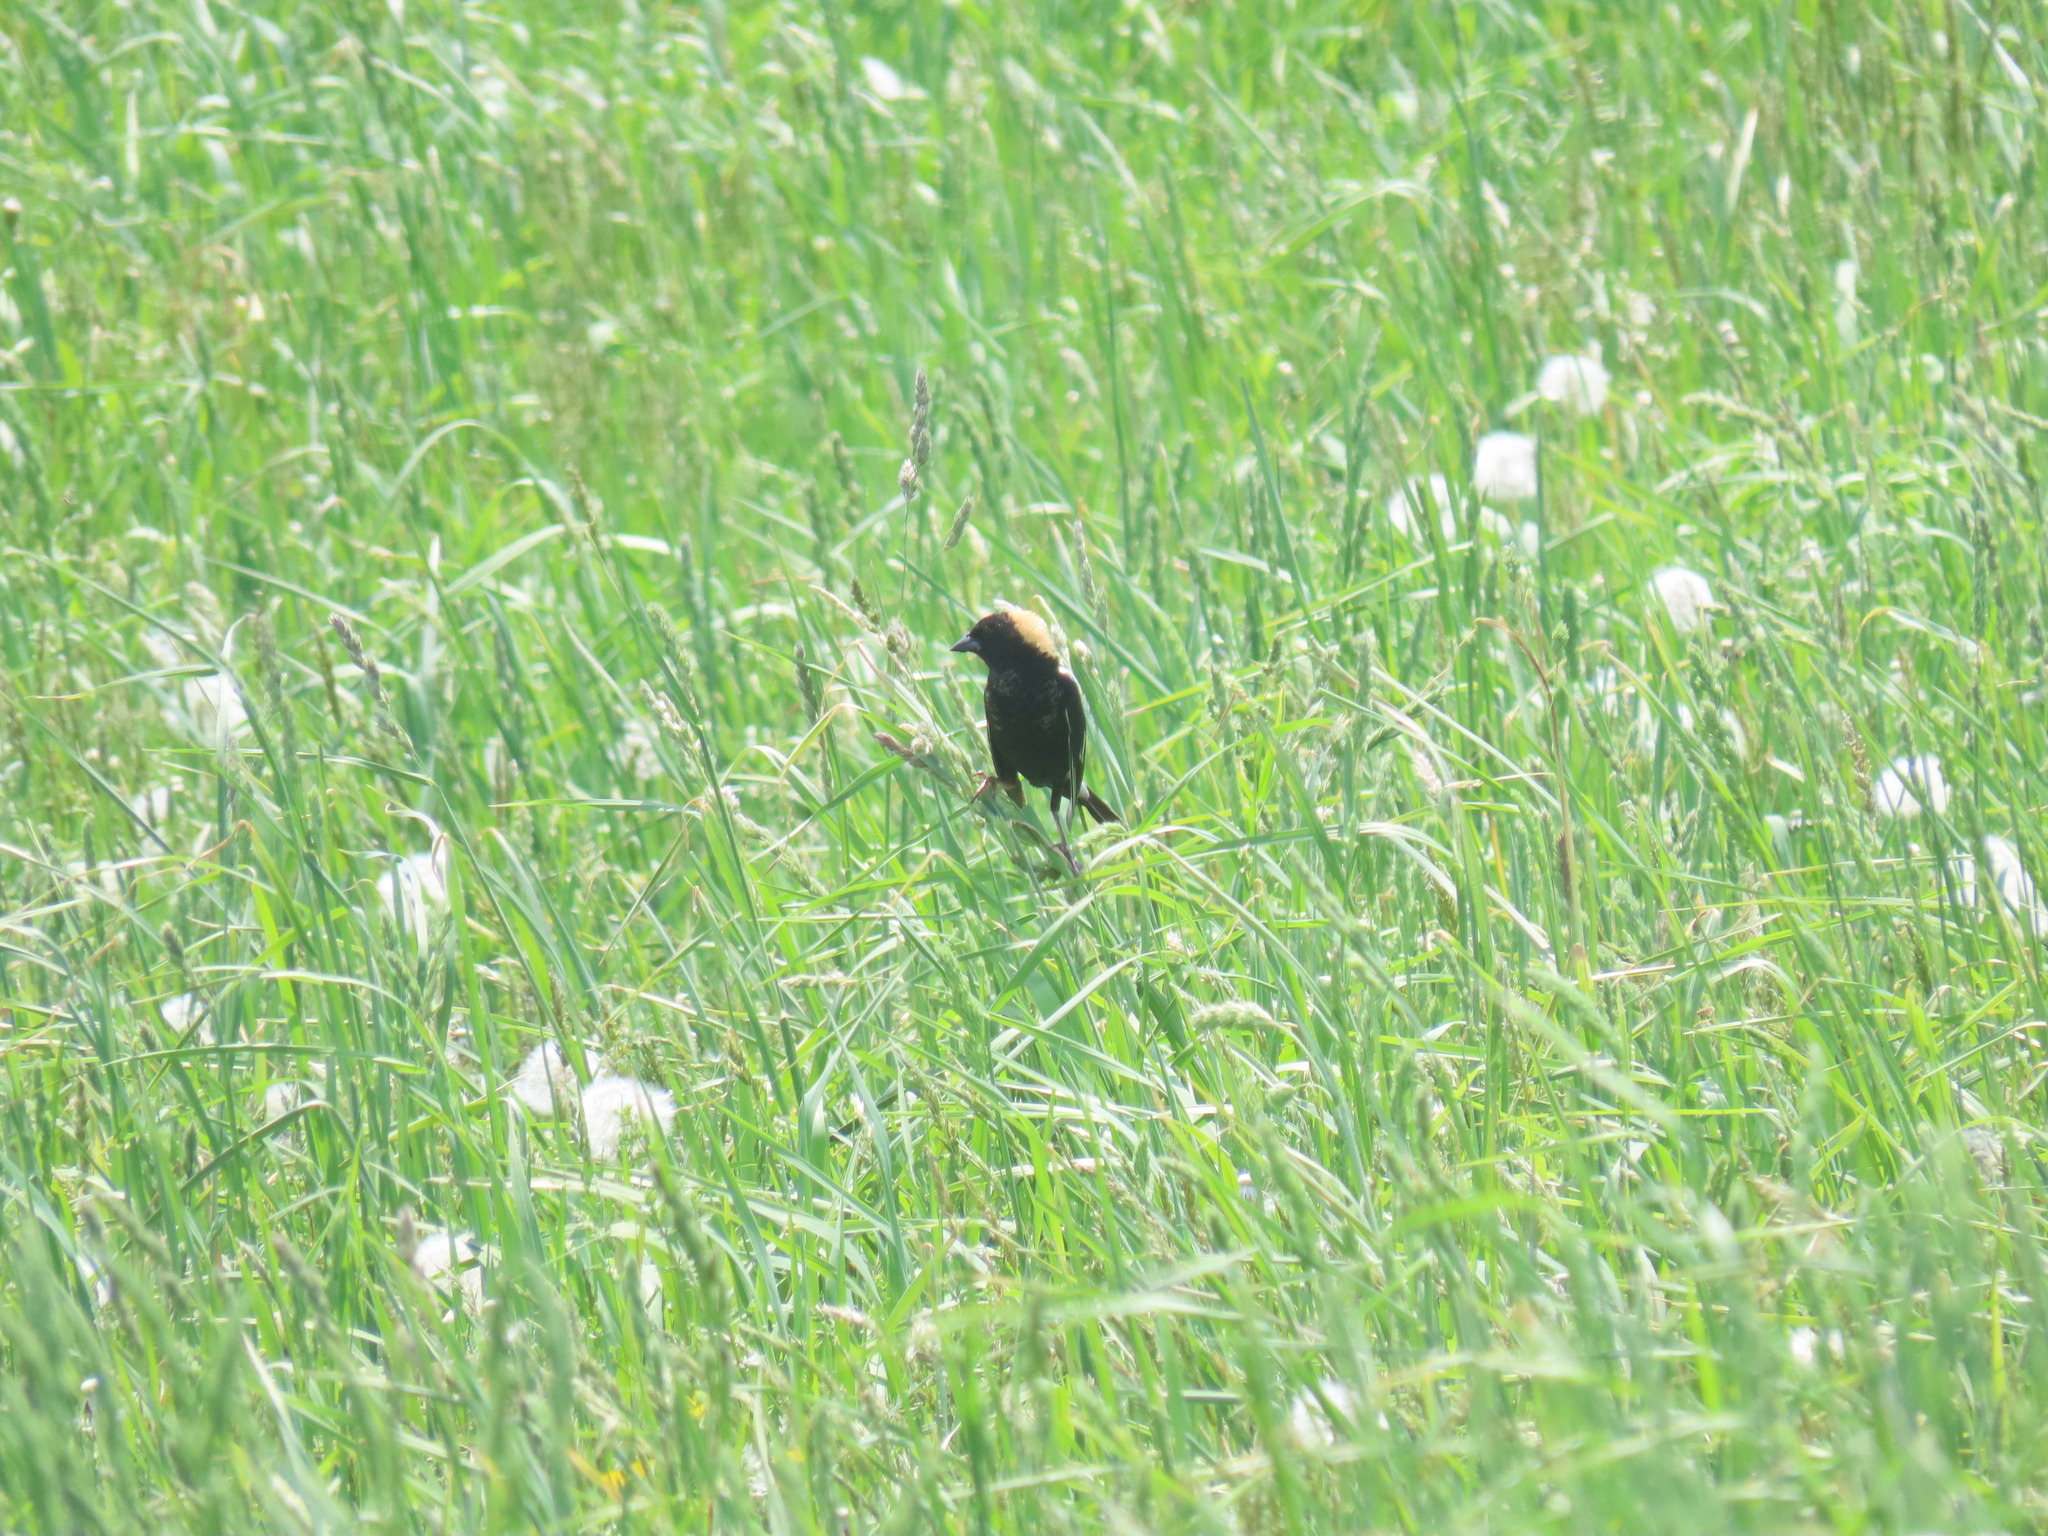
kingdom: Animalia
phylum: Chordata
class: Aves
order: Passeriformes
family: Icteridae
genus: Dolichonyx
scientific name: Dolichonyx oryzivorus
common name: Bobolink
